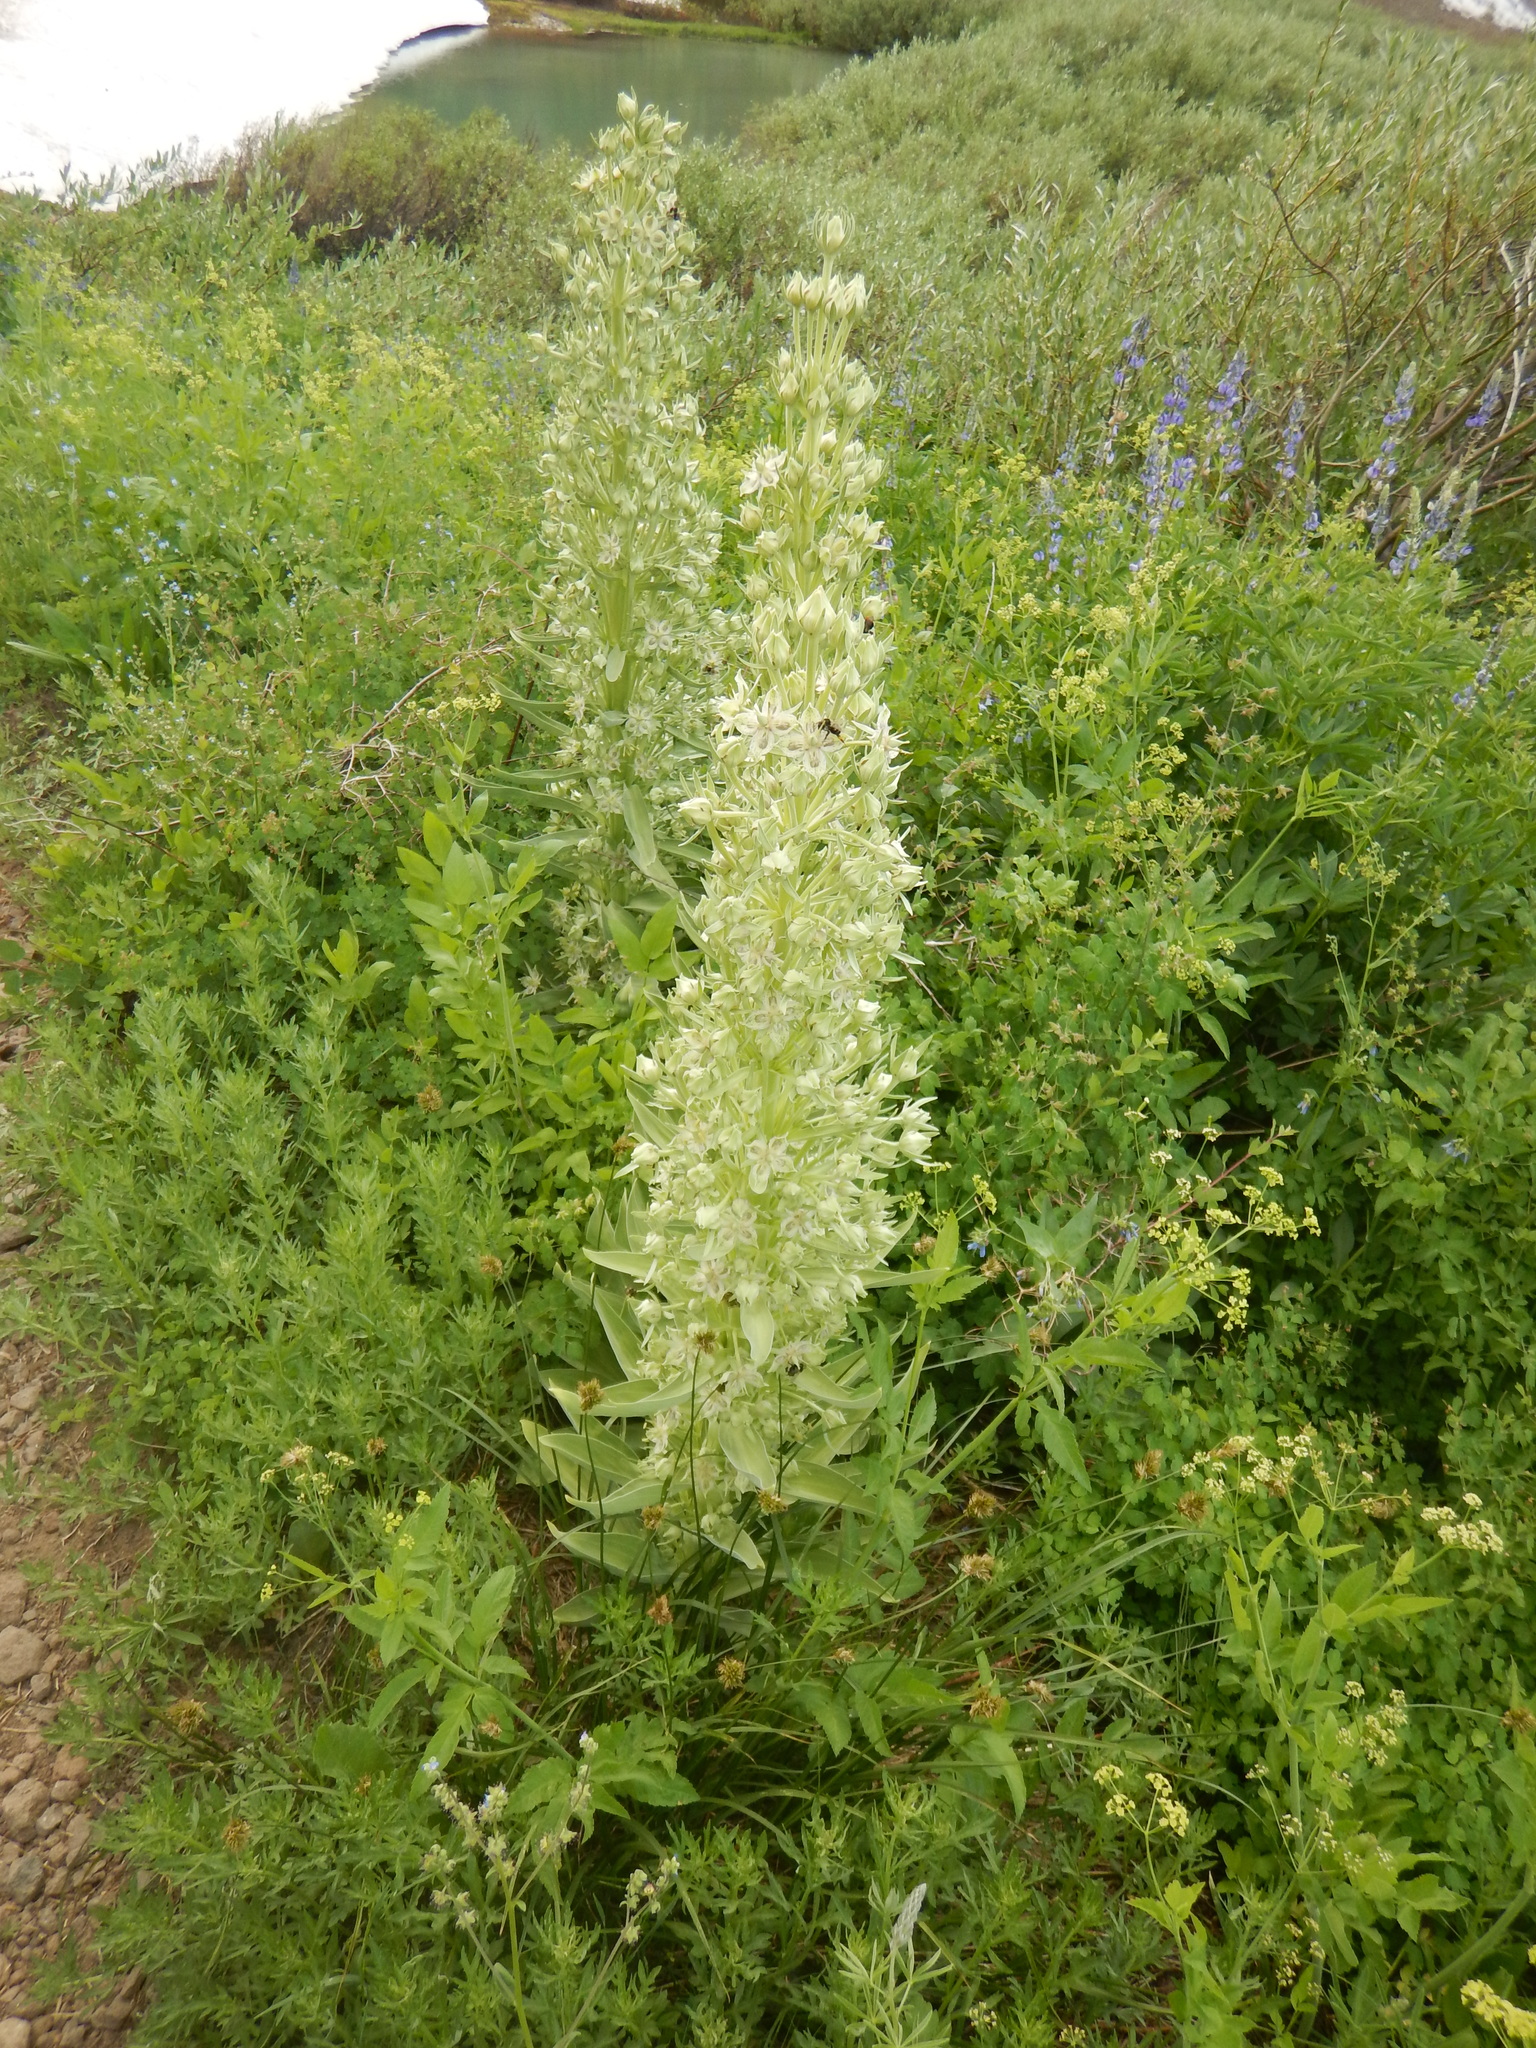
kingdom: Plantae
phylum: Tracheophyta
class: Magnoliopsida
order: Gentianales
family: Gentianaceae
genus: Frasera
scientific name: Frasera speciosa
